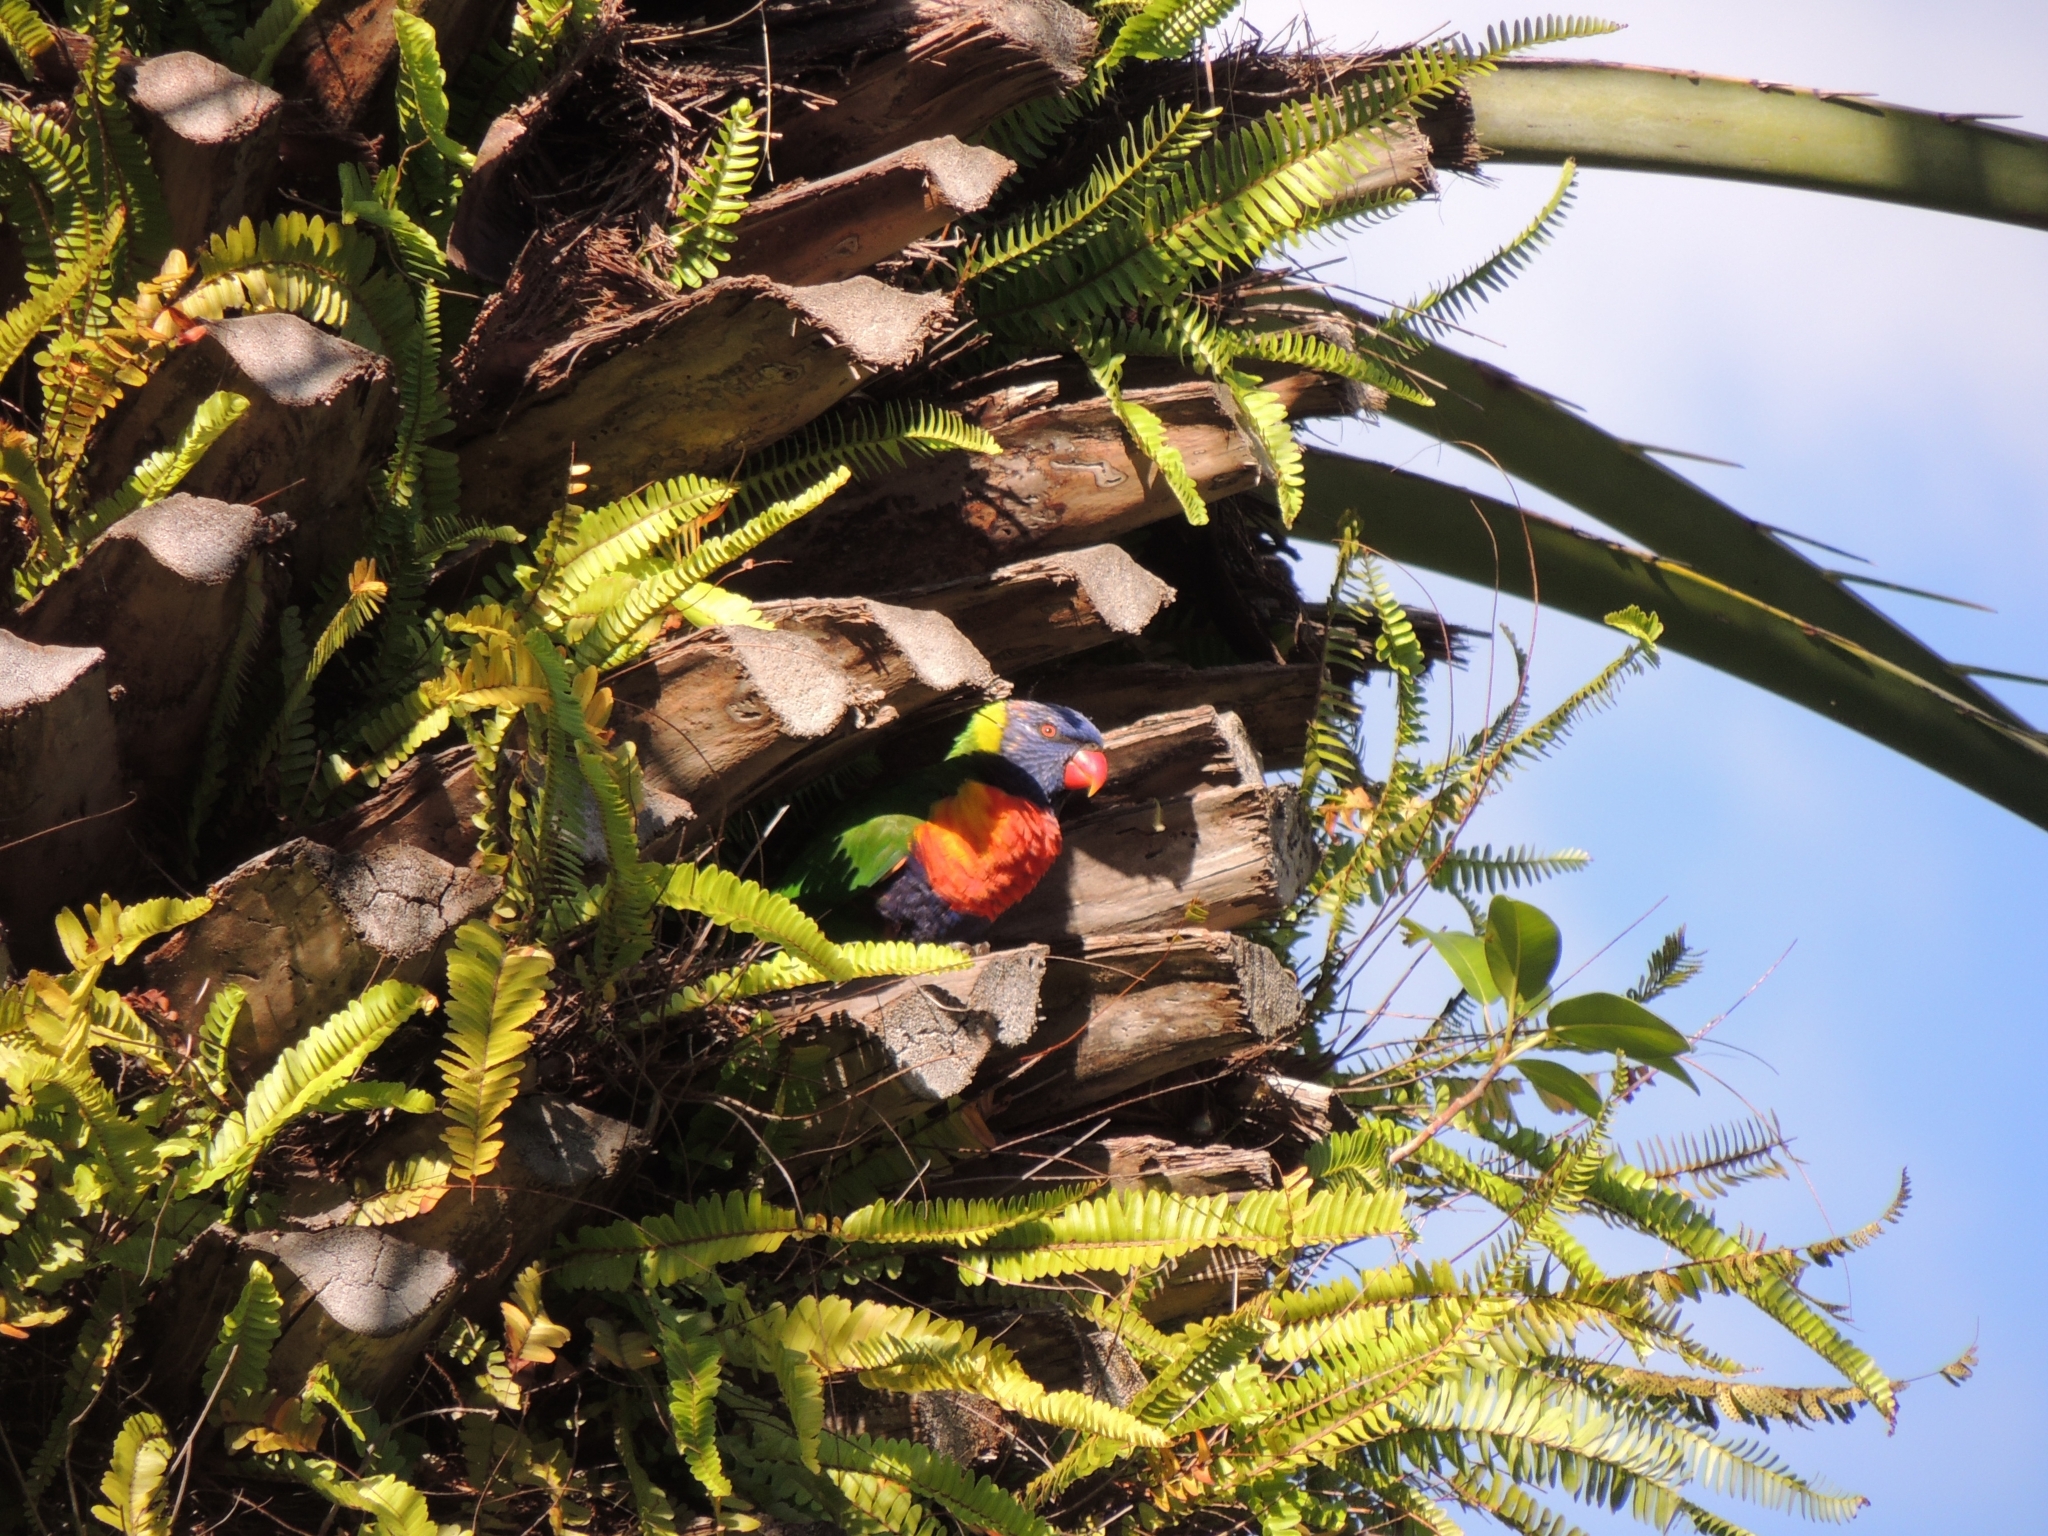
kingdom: Animalia
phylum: Chordata
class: Aves
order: Psittaciformes
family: Psittacidae
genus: Trichoglossus
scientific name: Trichoglossus haematodus
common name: Coconut lorikeet
